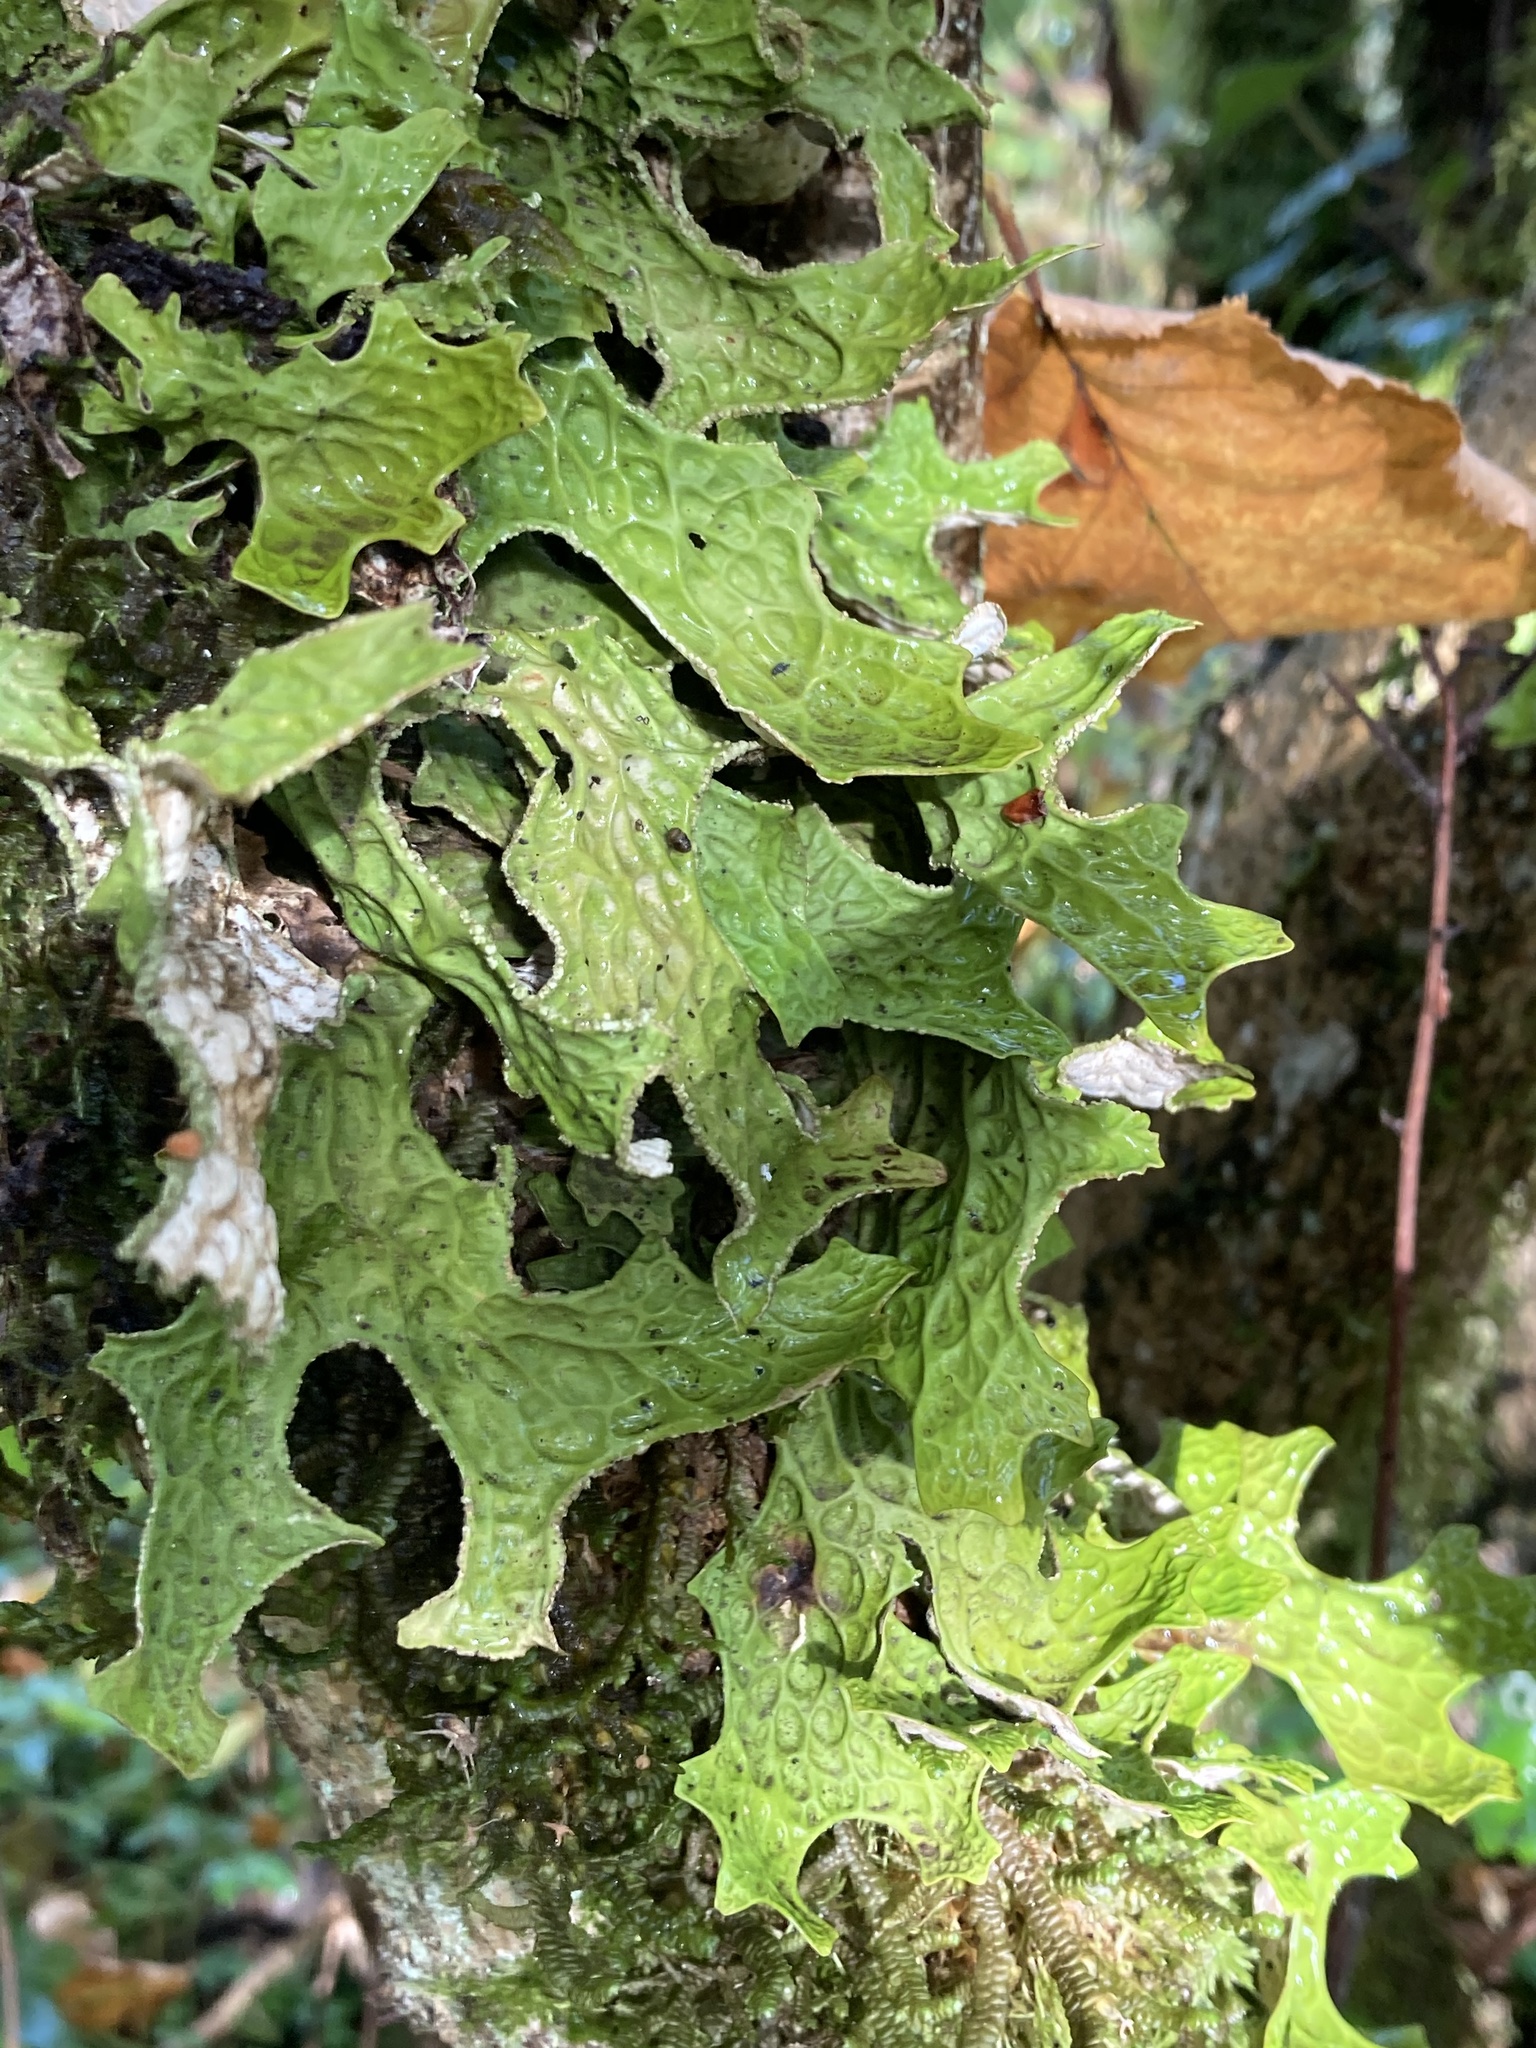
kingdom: Fungi
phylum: Ascomycota
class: Lecanoromycetes
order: Peltigerales
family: Lobariaceae
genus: Lobaria
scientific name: Lobaria pulmonaria
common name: Lungwort
